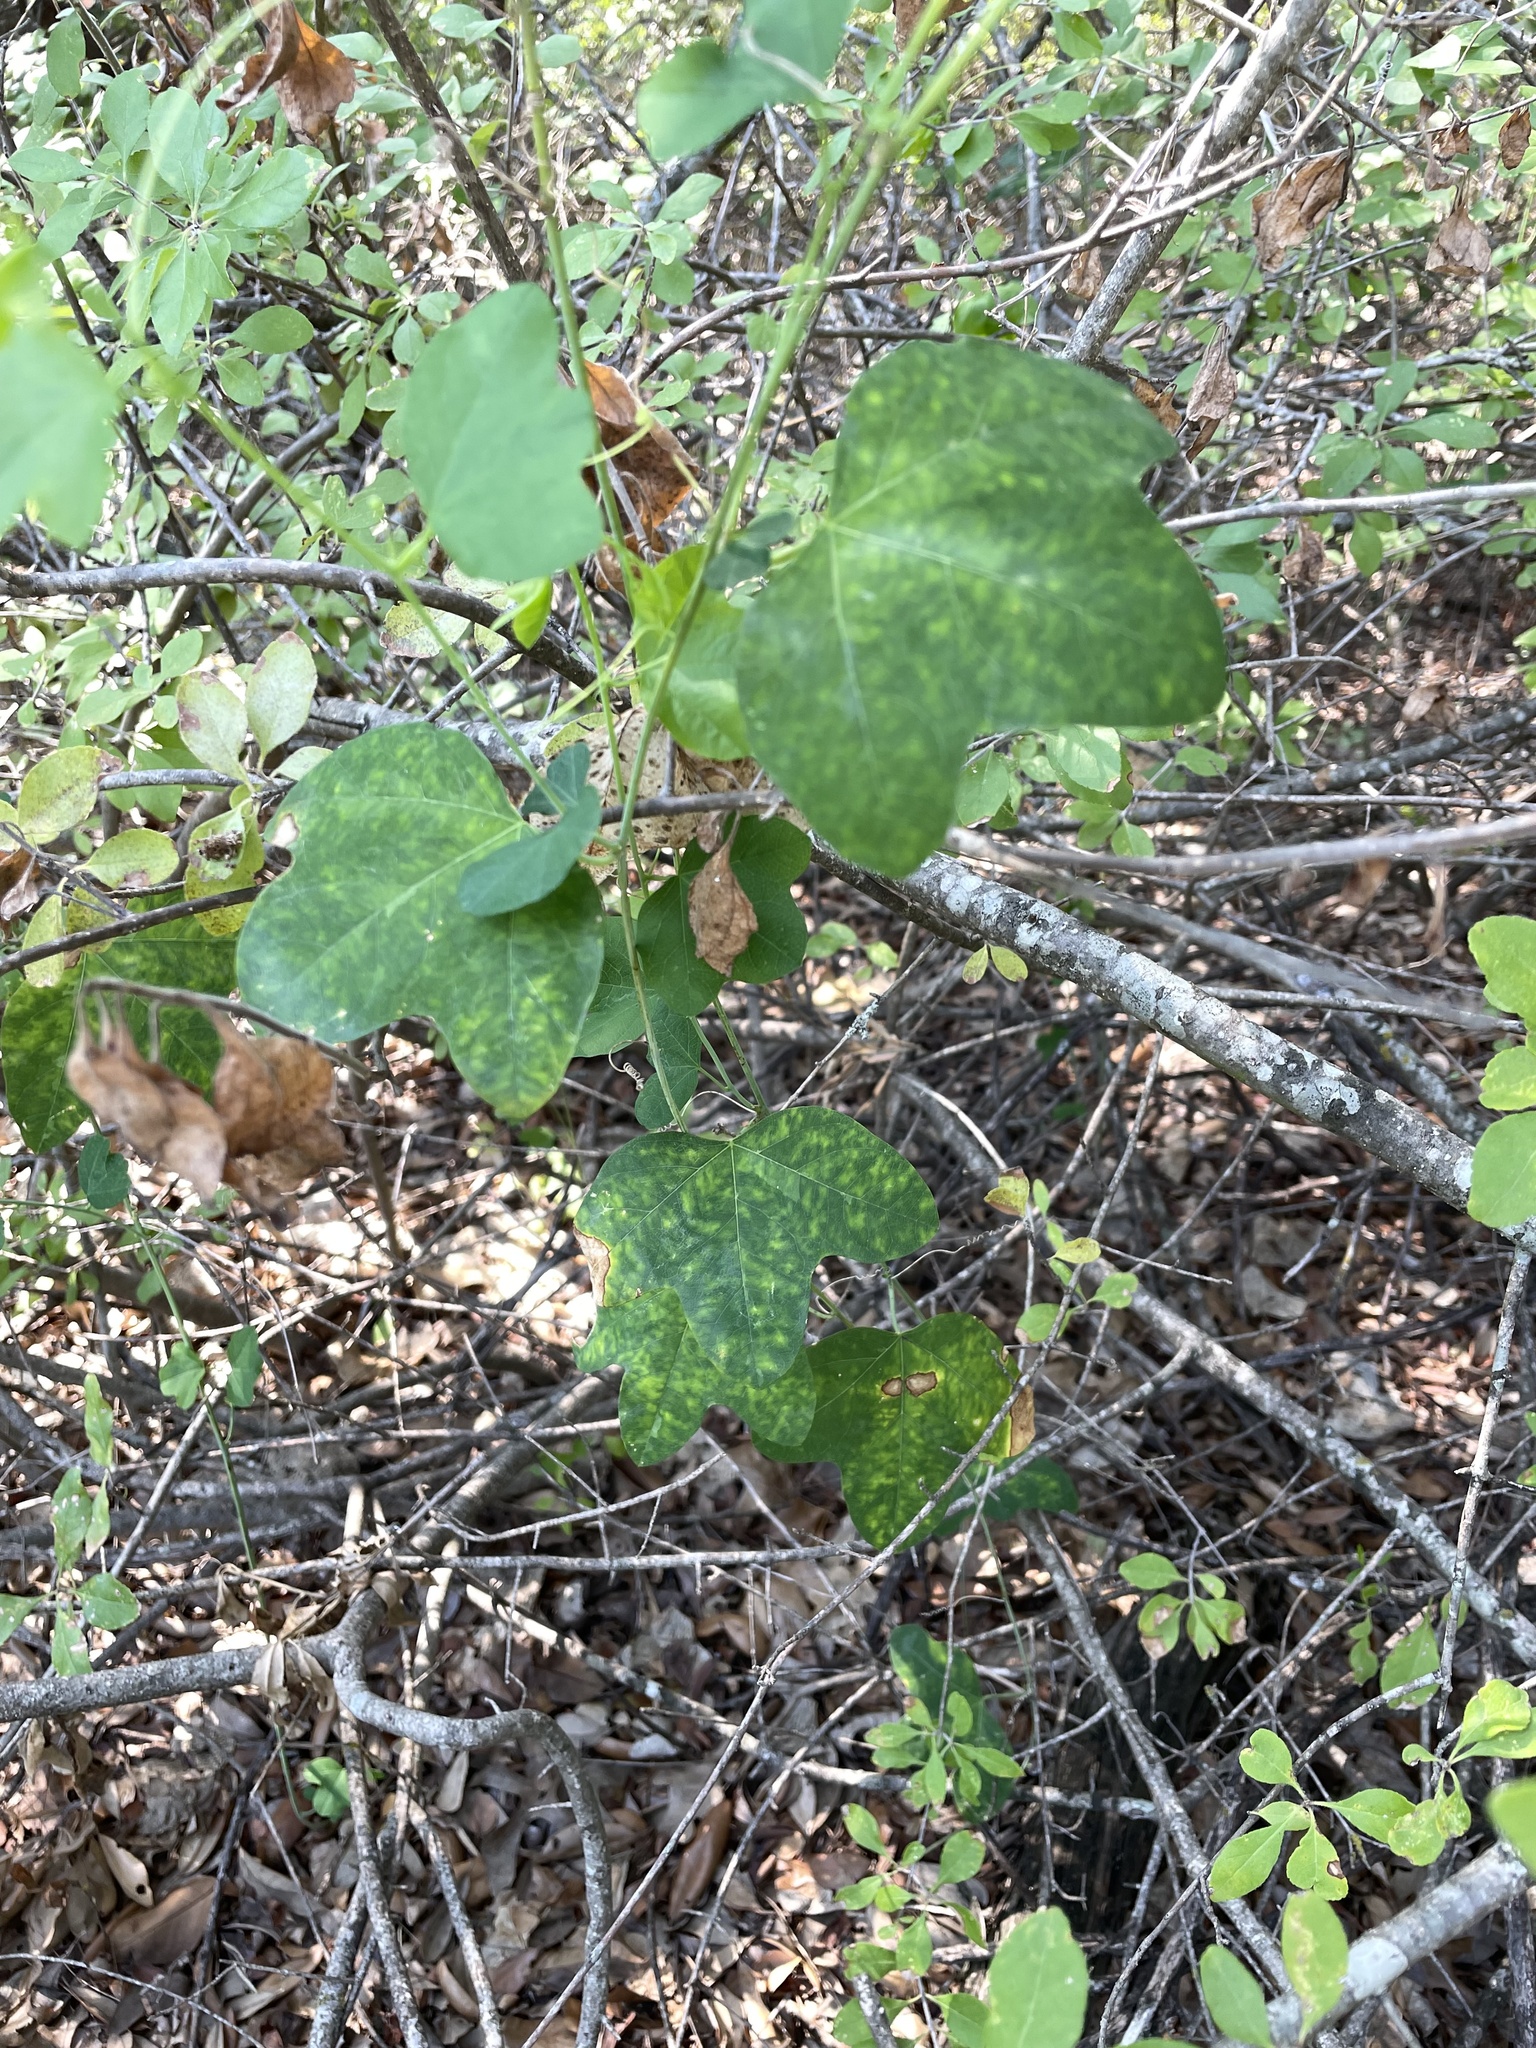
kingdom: Plantae
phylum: Tracheophyta
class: Magnoliopsida
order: Malpighiales
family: Passifloraceae
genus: Passiflora
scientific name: Passiflora lutea
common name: Yellow passionflower
